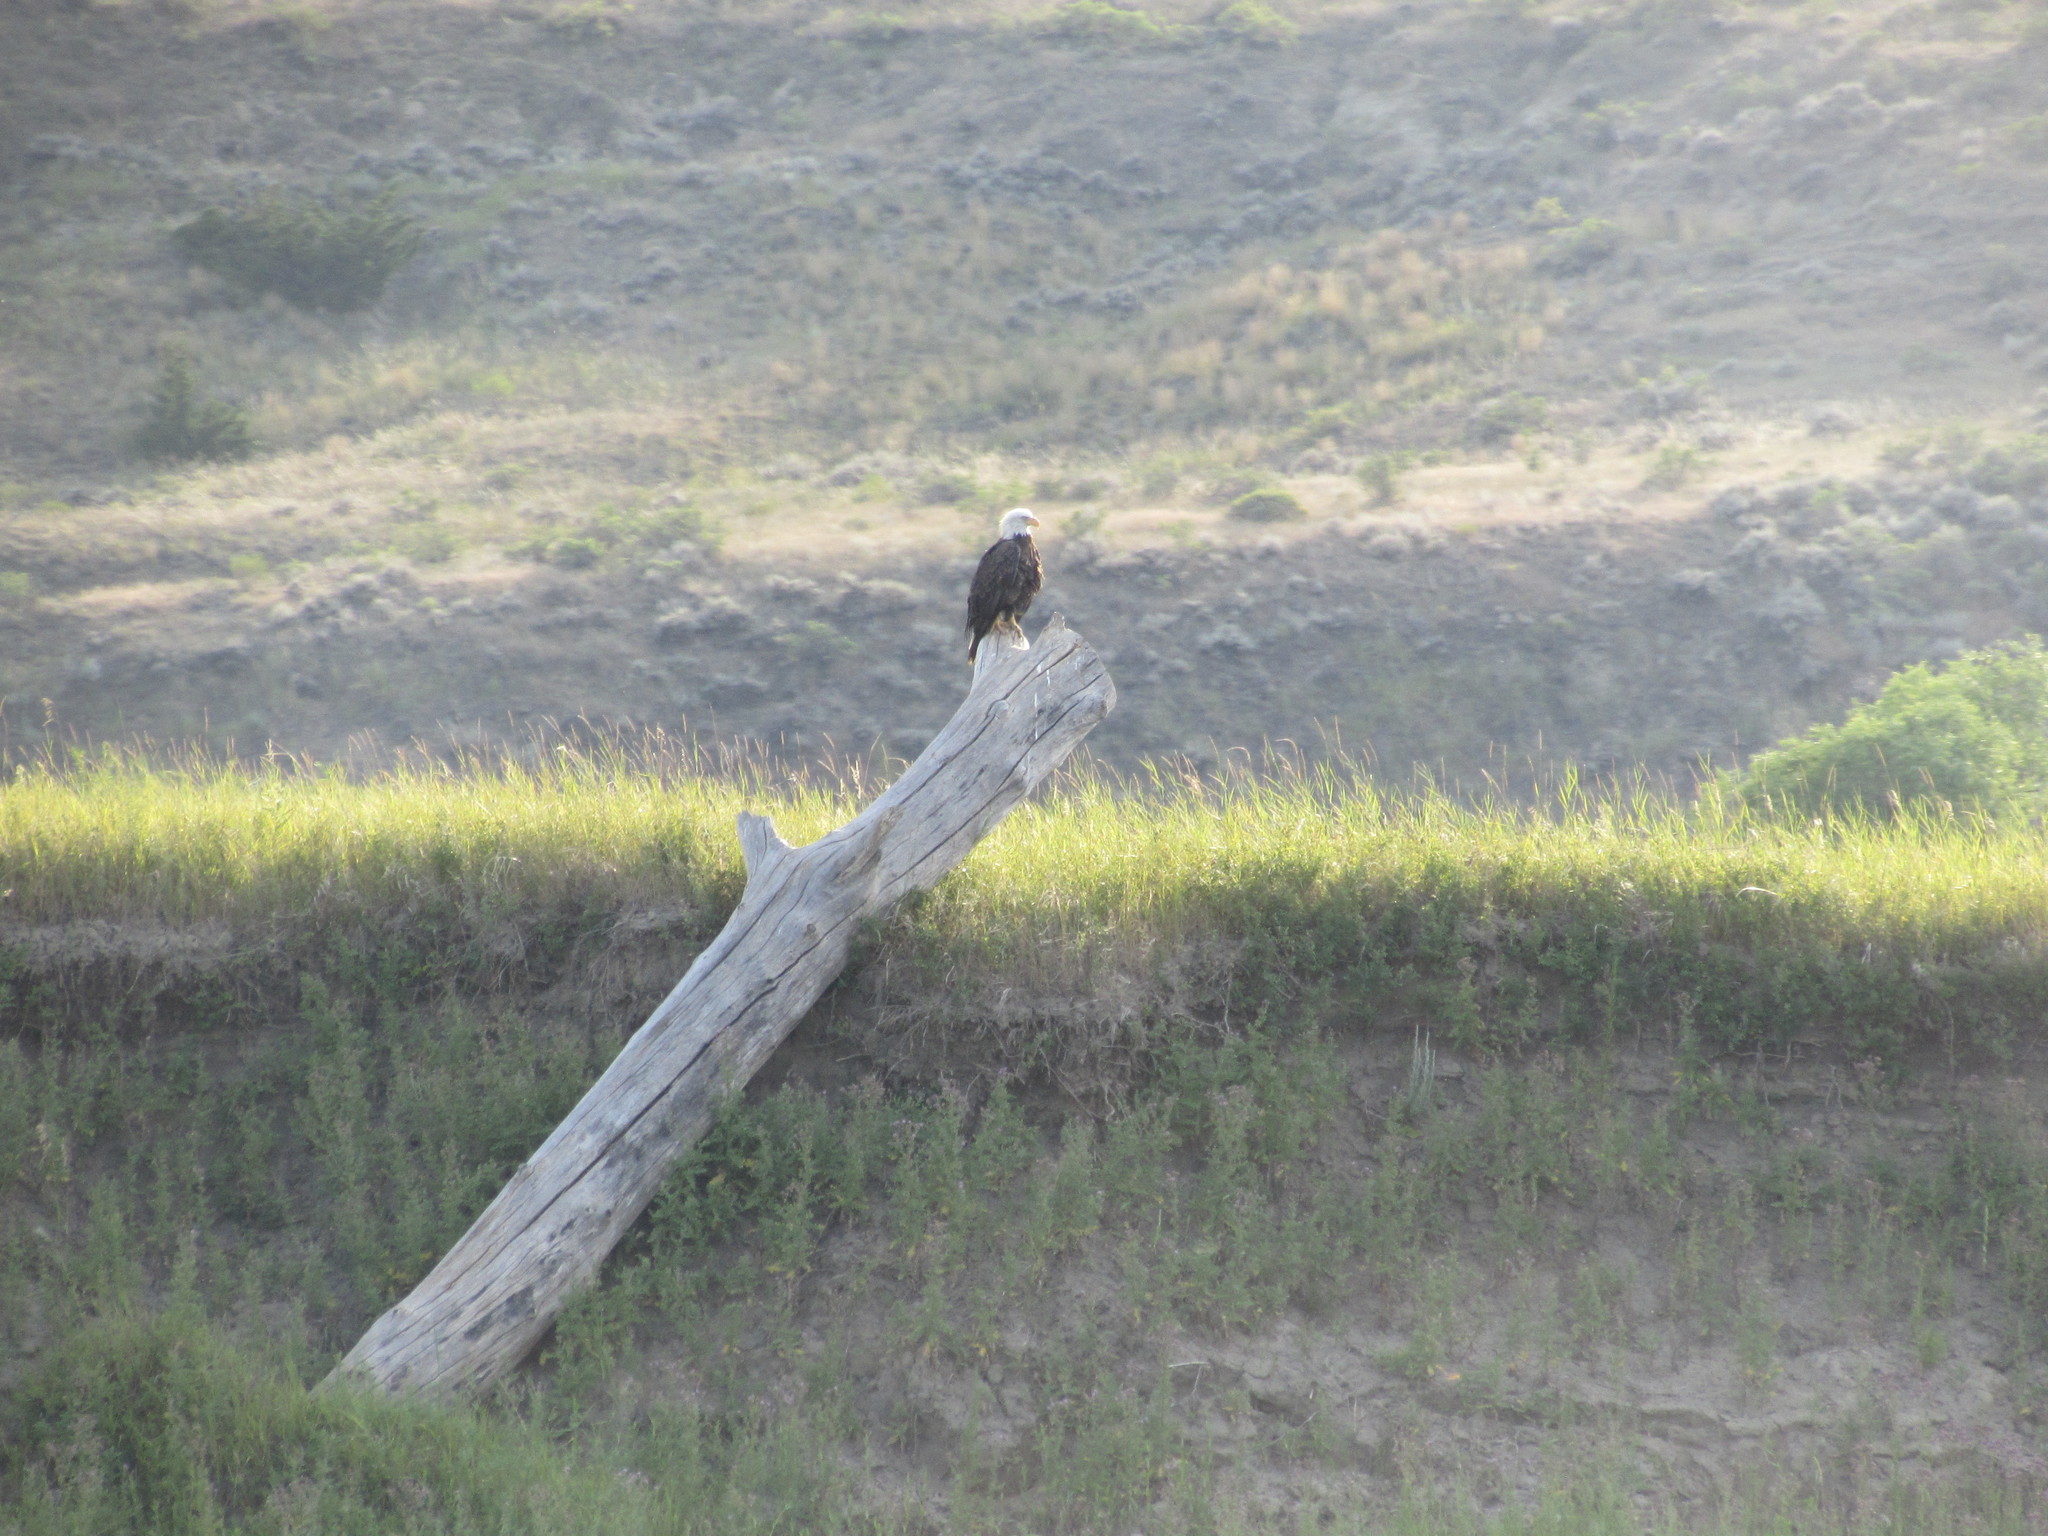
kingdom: Animalia
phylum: Chordata
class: Aves
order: Accipitriformes
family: Accipitridae
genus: Haliaeetus
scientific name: Haliaeetus leucocephalus
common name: Bald eagle
